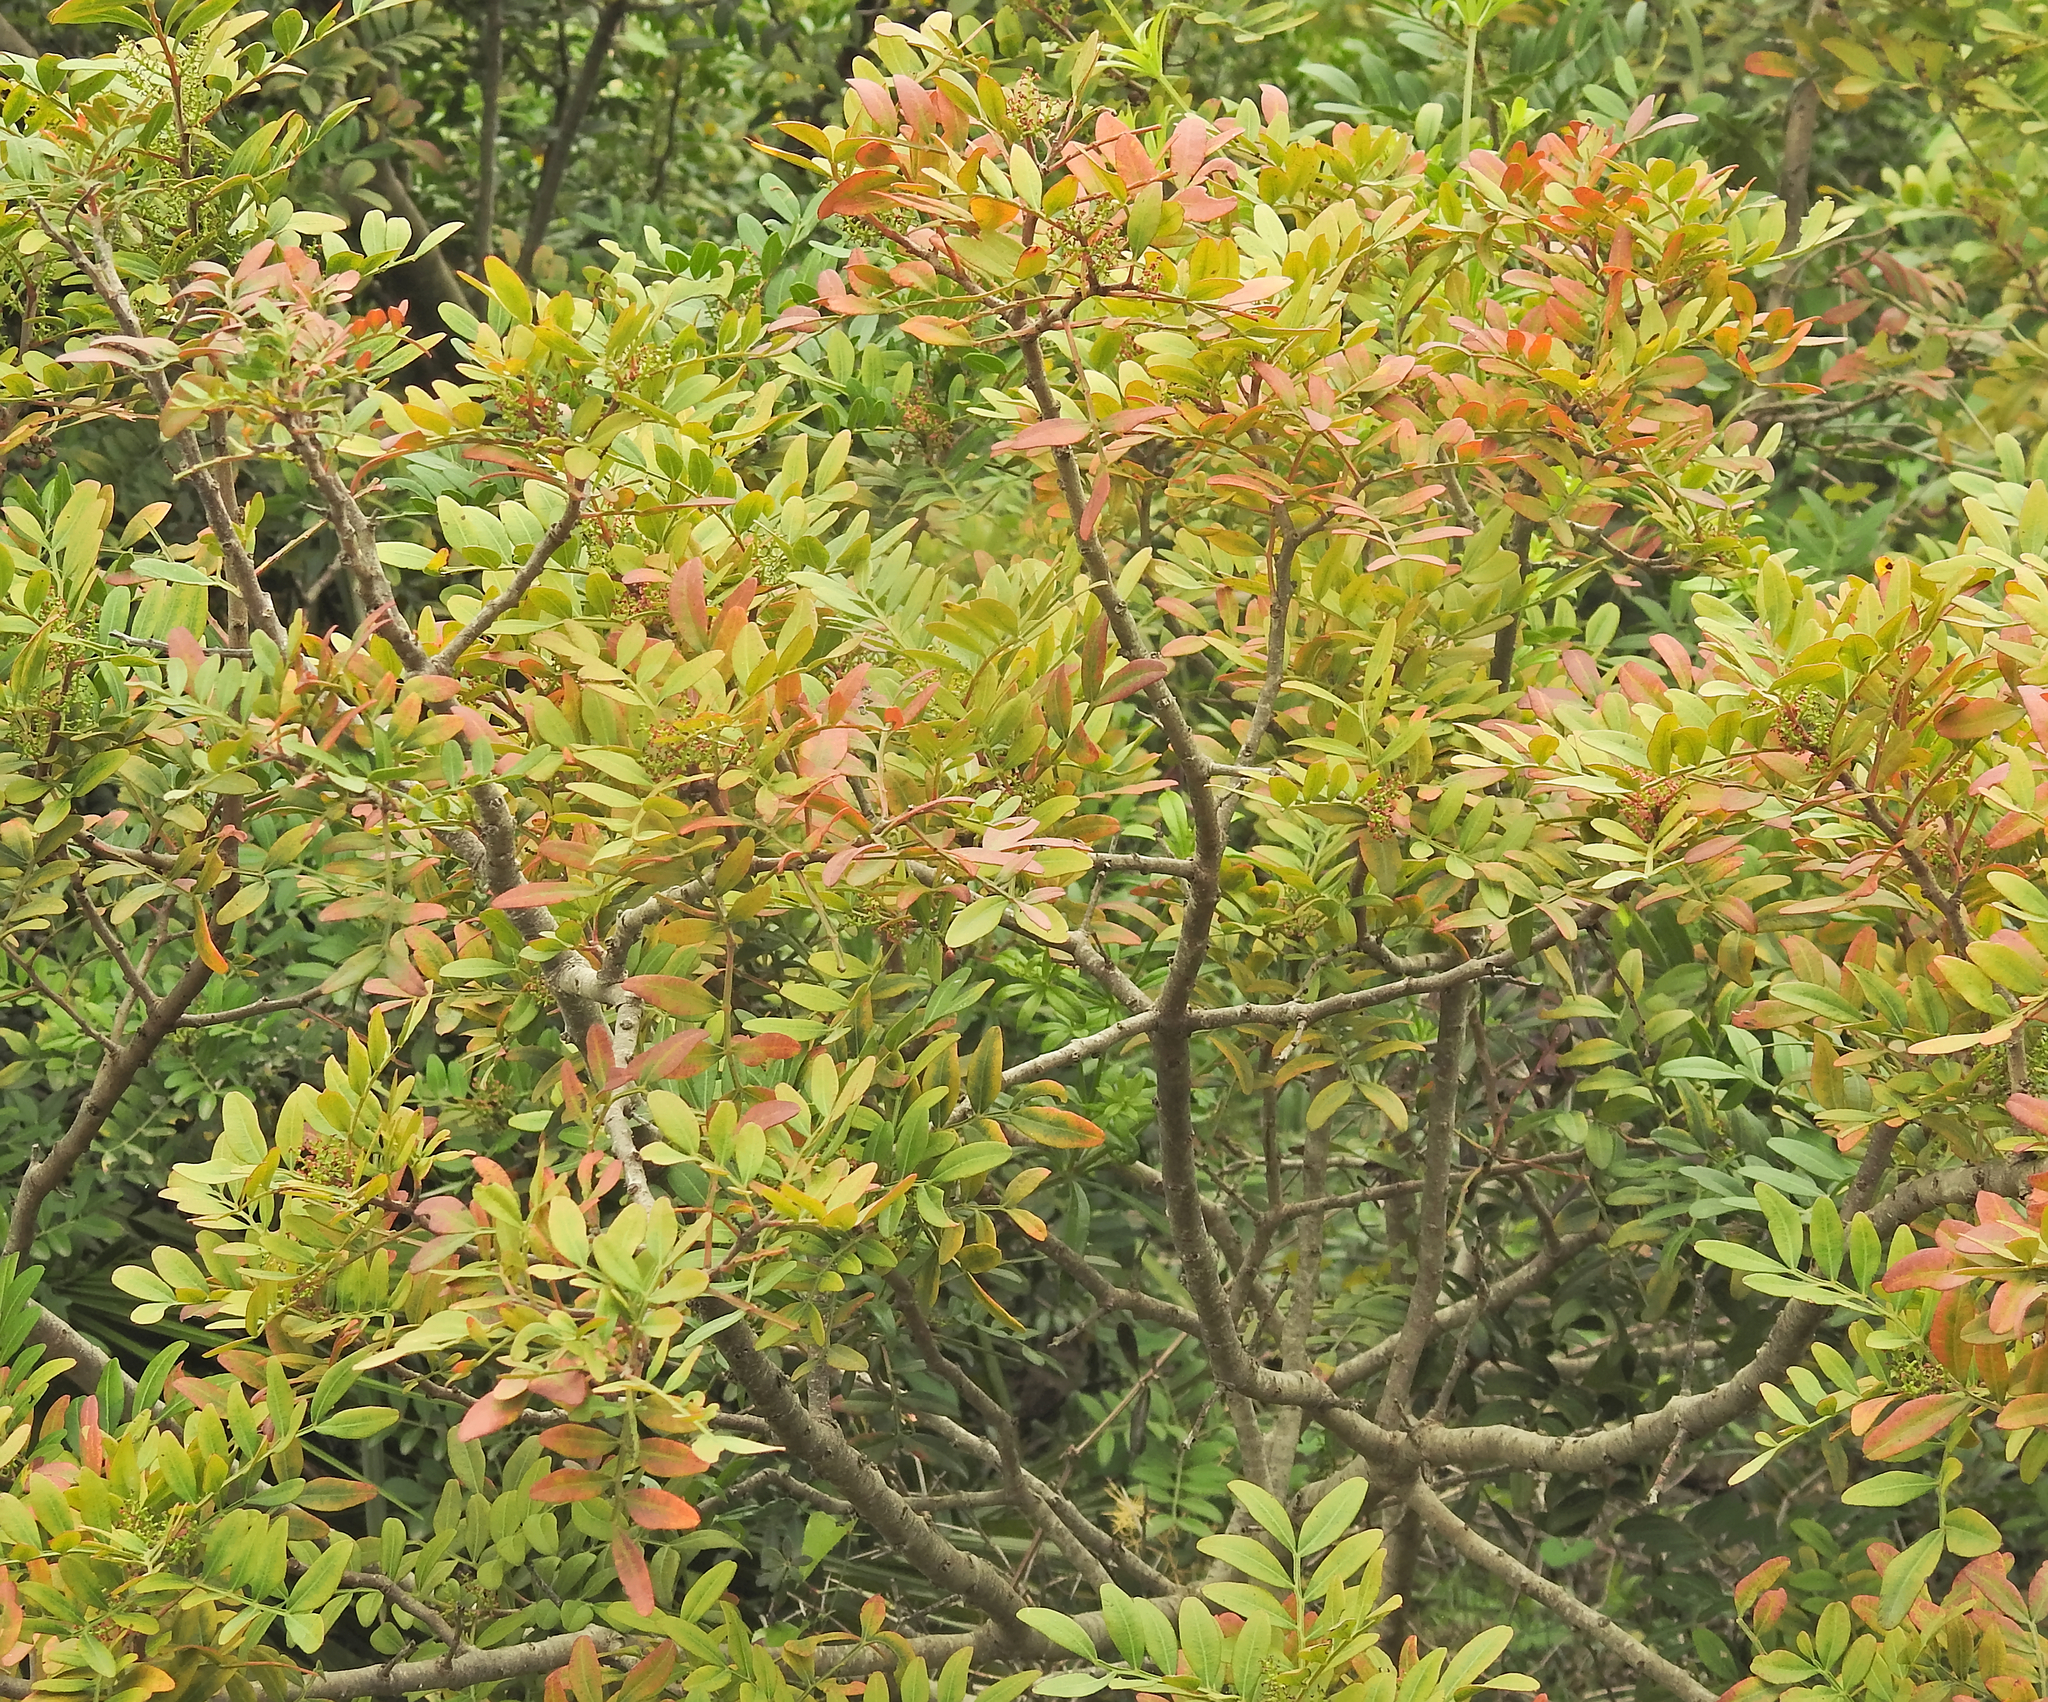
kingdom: Plantae
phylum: Tracheophyta
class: Magnoliopsida
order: Sapindales
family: Anacardiaceae
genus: Pistacia
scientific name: Pistacia lentiscus
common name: Lentisk
